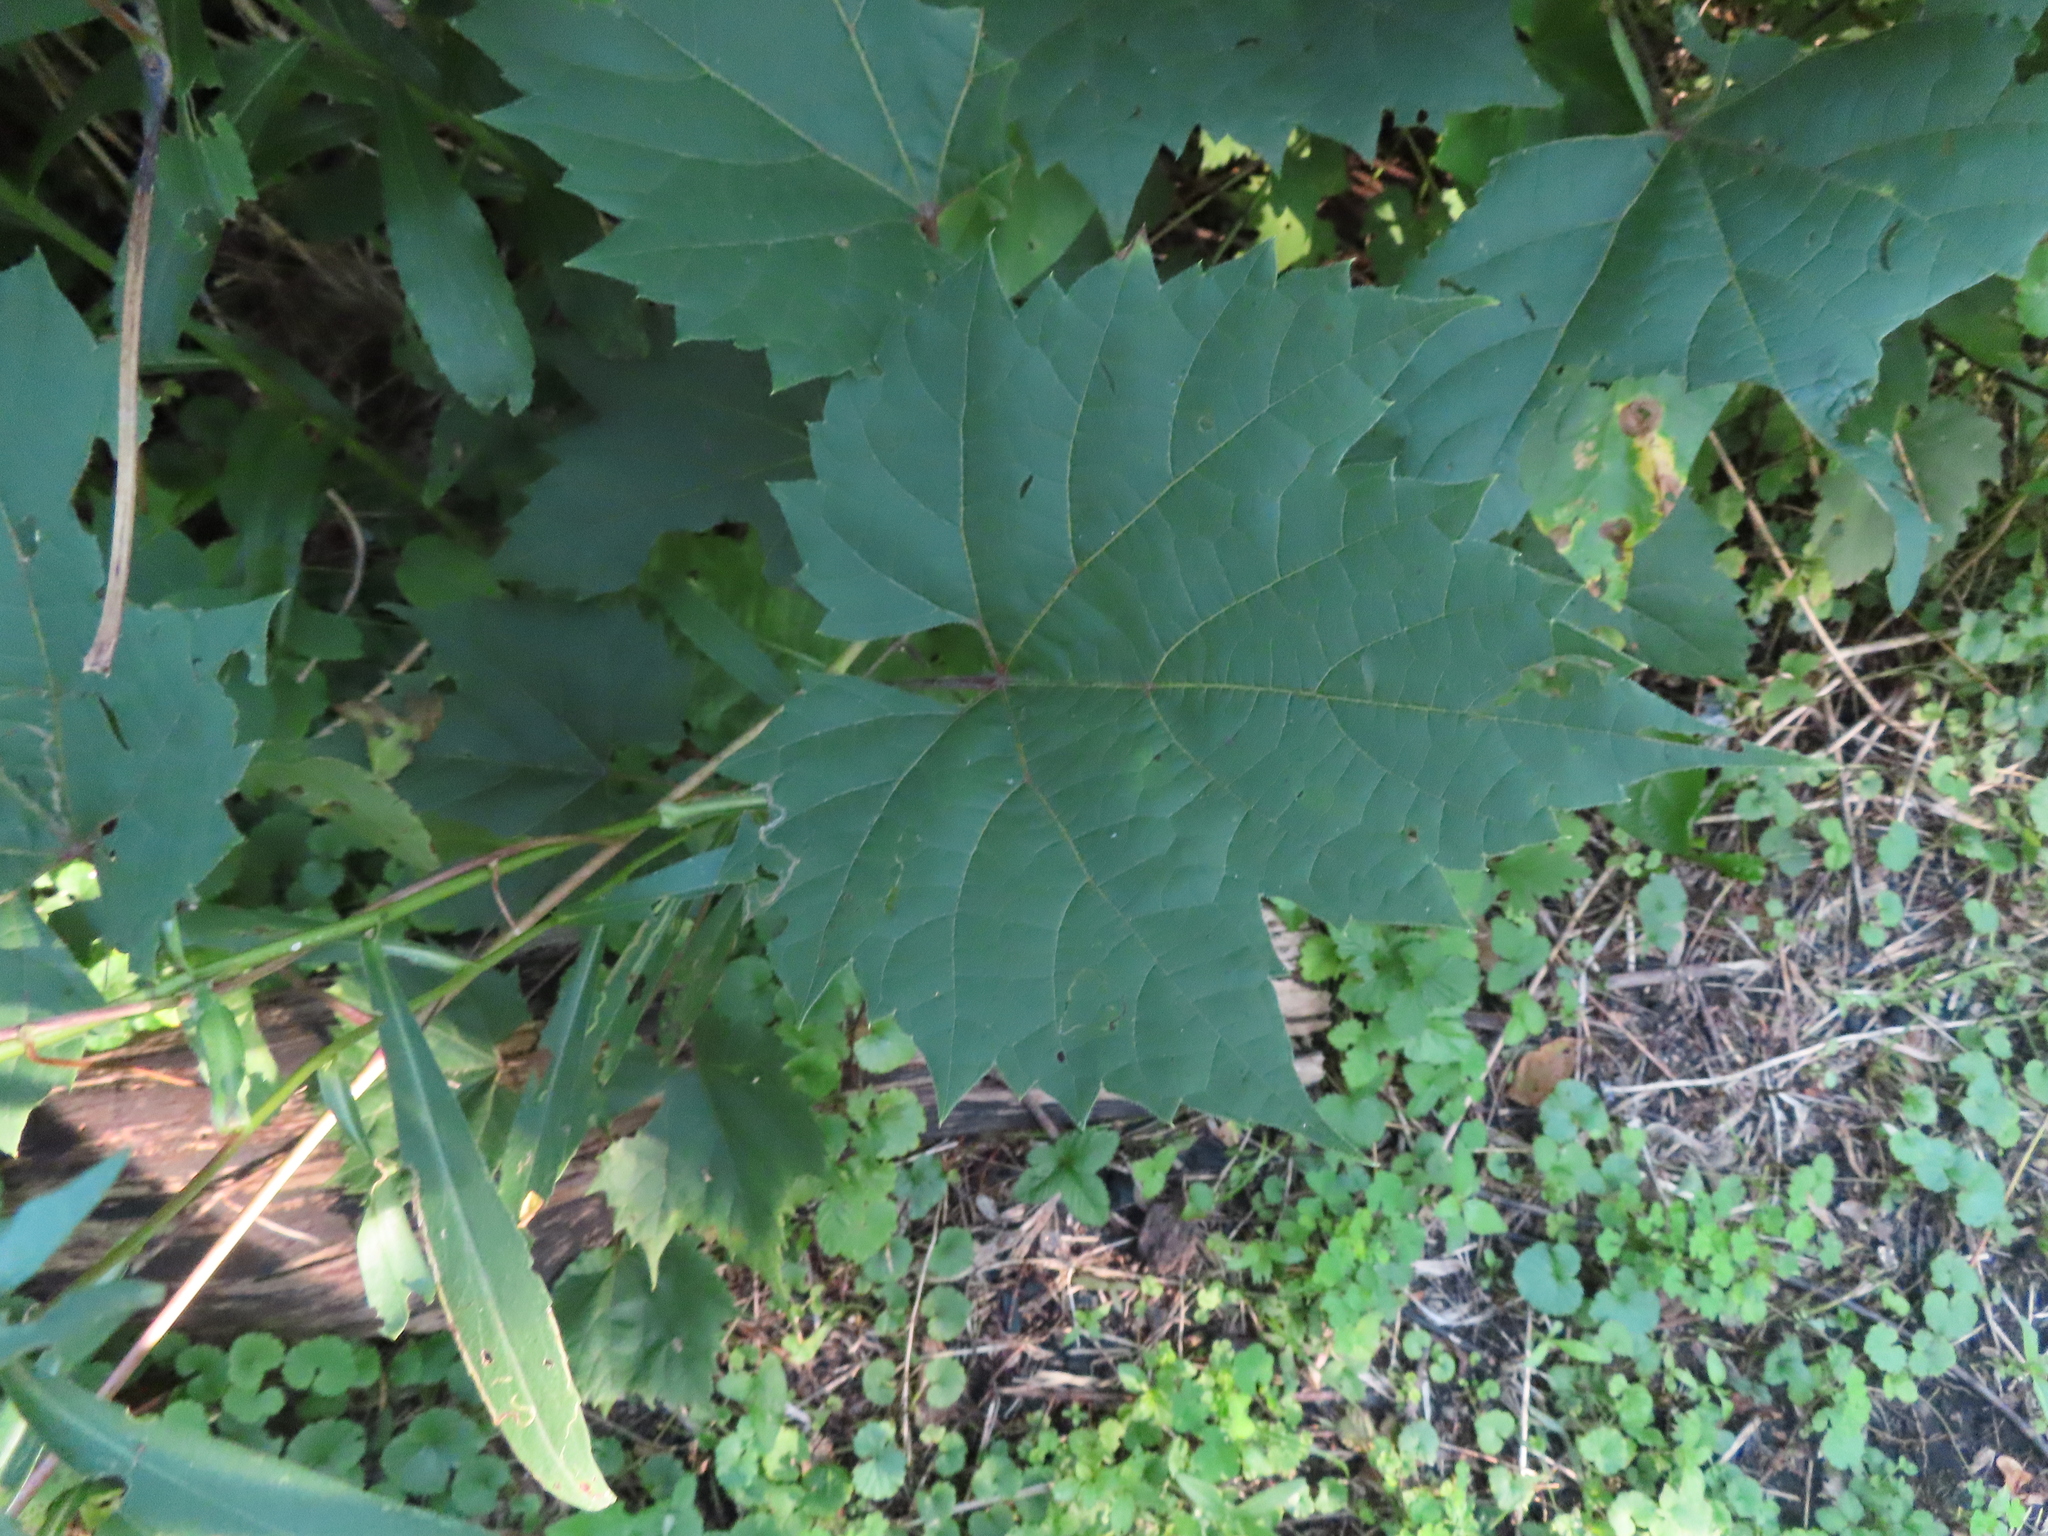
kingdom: Plantae
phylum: Tracheophyta
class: Magnoliopsida
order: Vitales
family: Vitaceae
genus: Vitis
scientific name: Vitis riparia
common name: Frost grape
